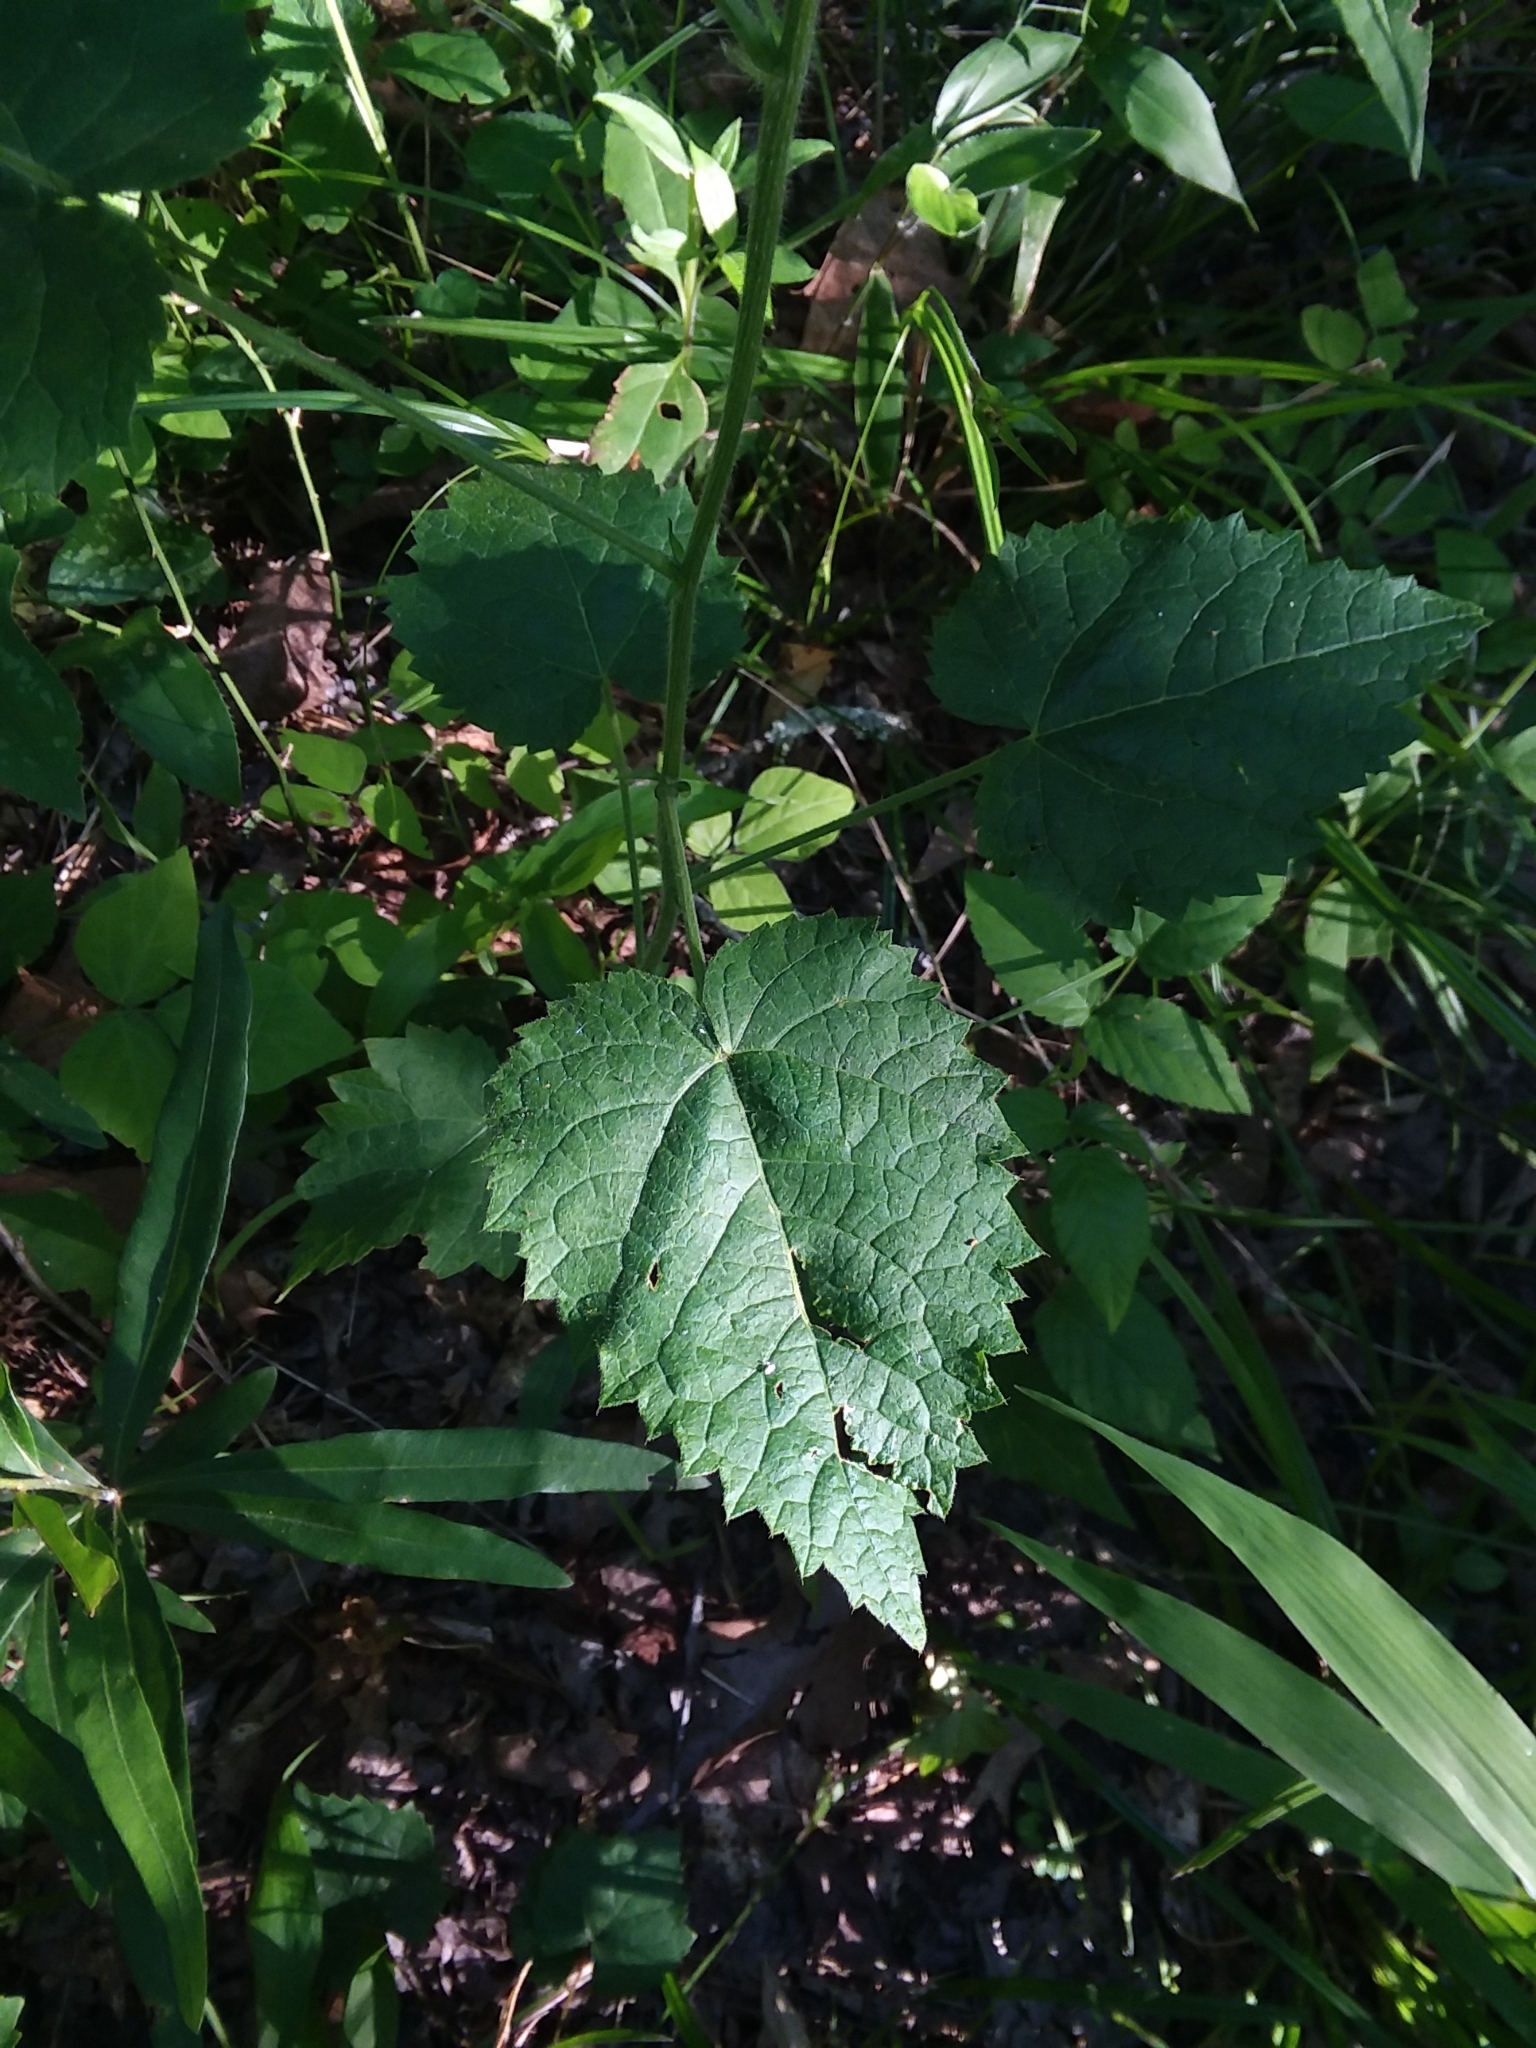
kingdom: Plantae
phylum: Tracheophyta
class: Magnoliopsida
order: Malpighiales
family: Euphorbiaceae
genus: Tragia
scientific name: Tragia cordata
